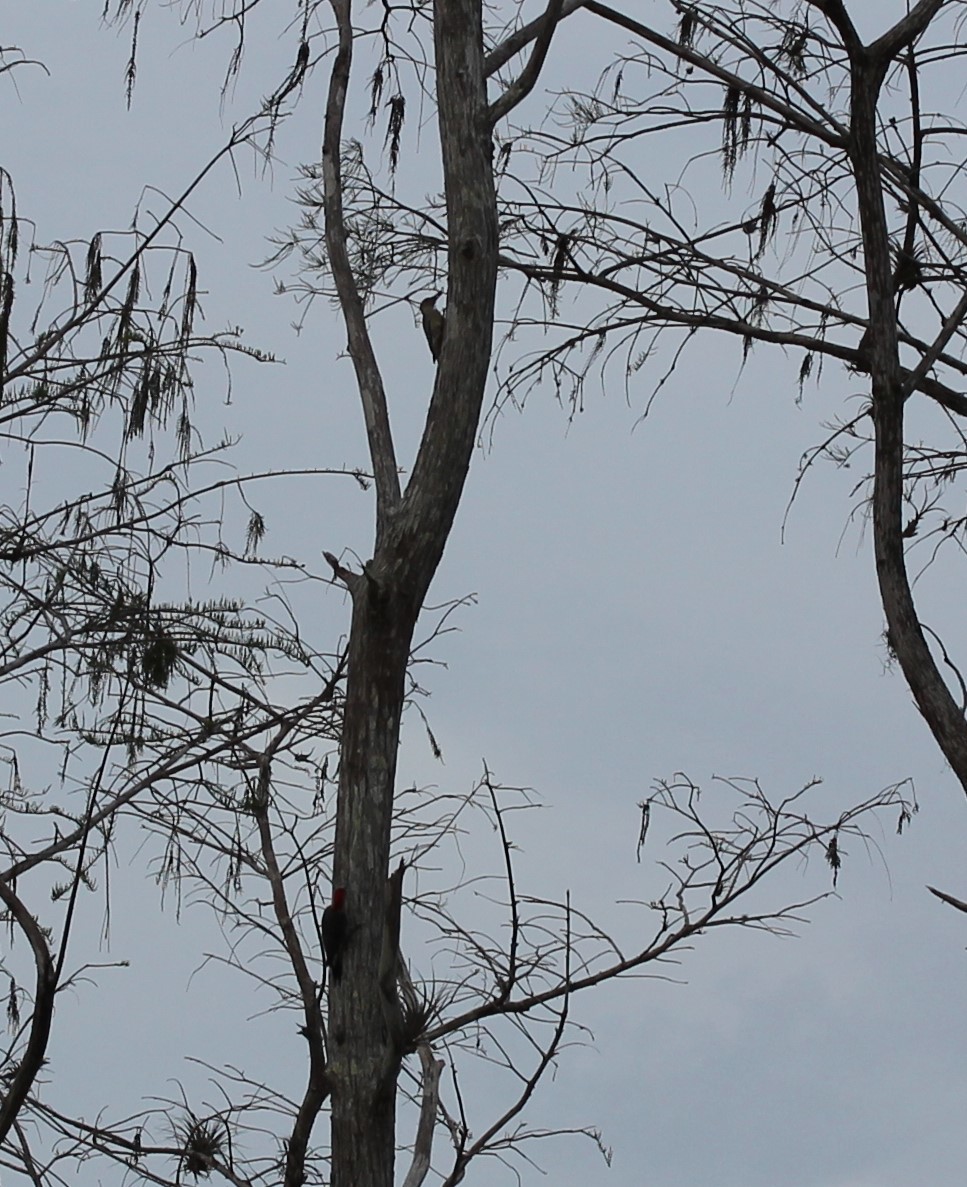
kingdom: Animalia
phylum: Chordata
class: Aves
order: Piciformes
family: Picidae
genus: Melanerpes
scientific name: Melanerpes carolinus
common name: Red-bellied woodpecker
